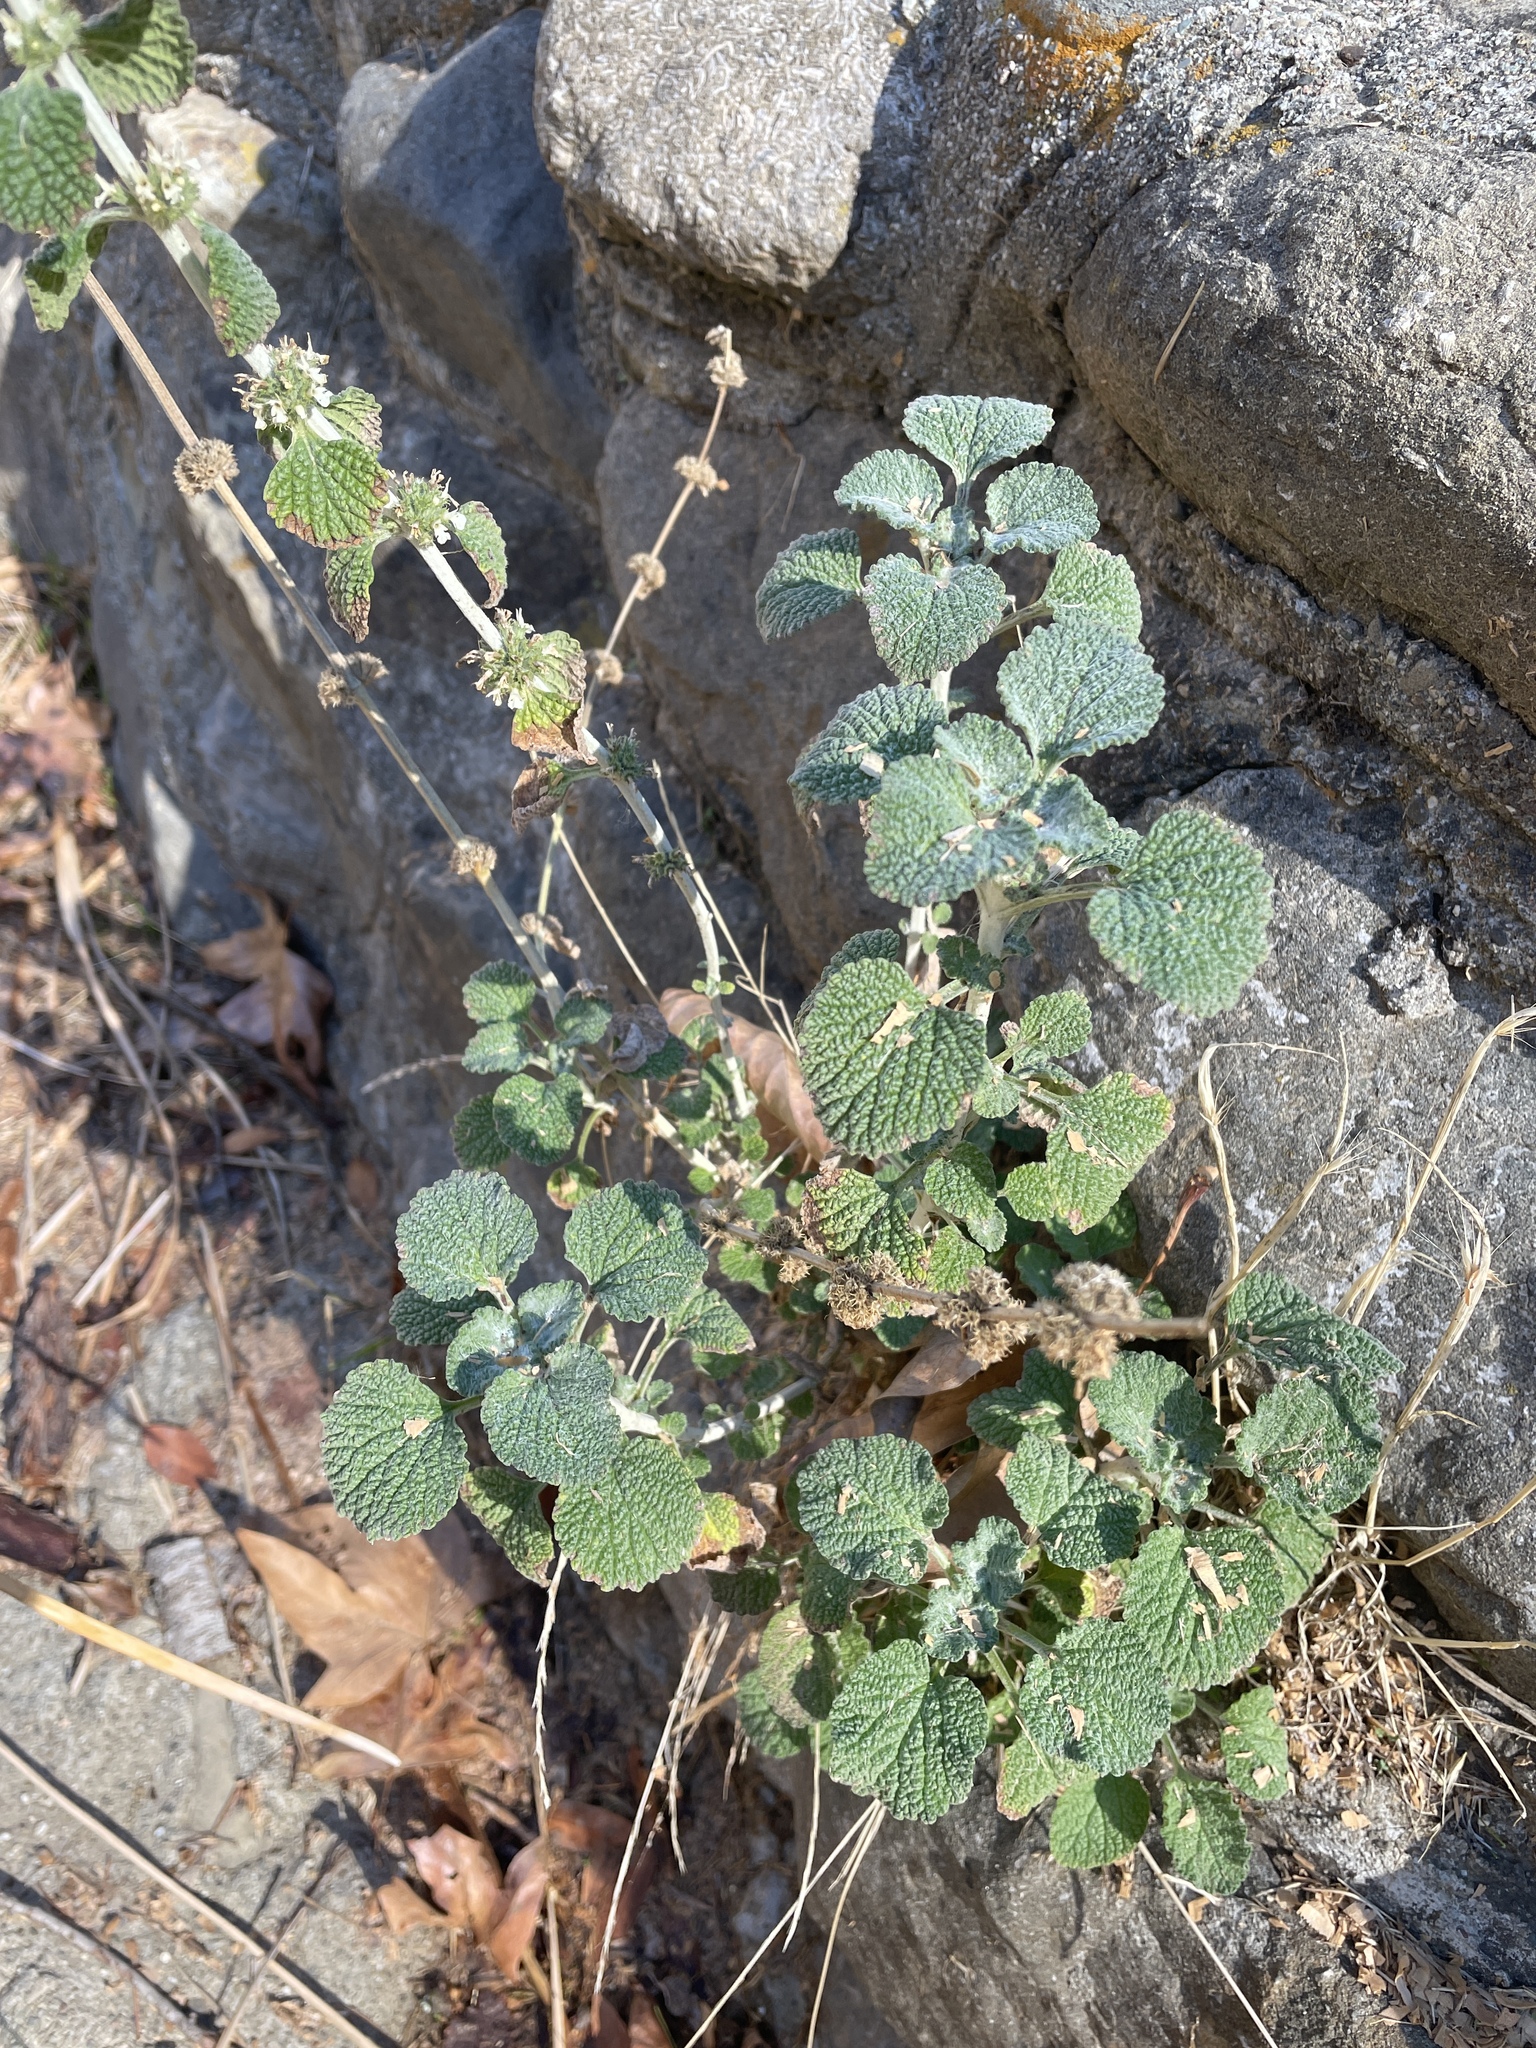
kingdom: Plantae
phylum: Tracheophyta
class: Magnoliopsida
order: Lamiales
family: Lamiaceae
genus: Marrubium
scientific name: Marrubium vulgare
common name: Horehound
